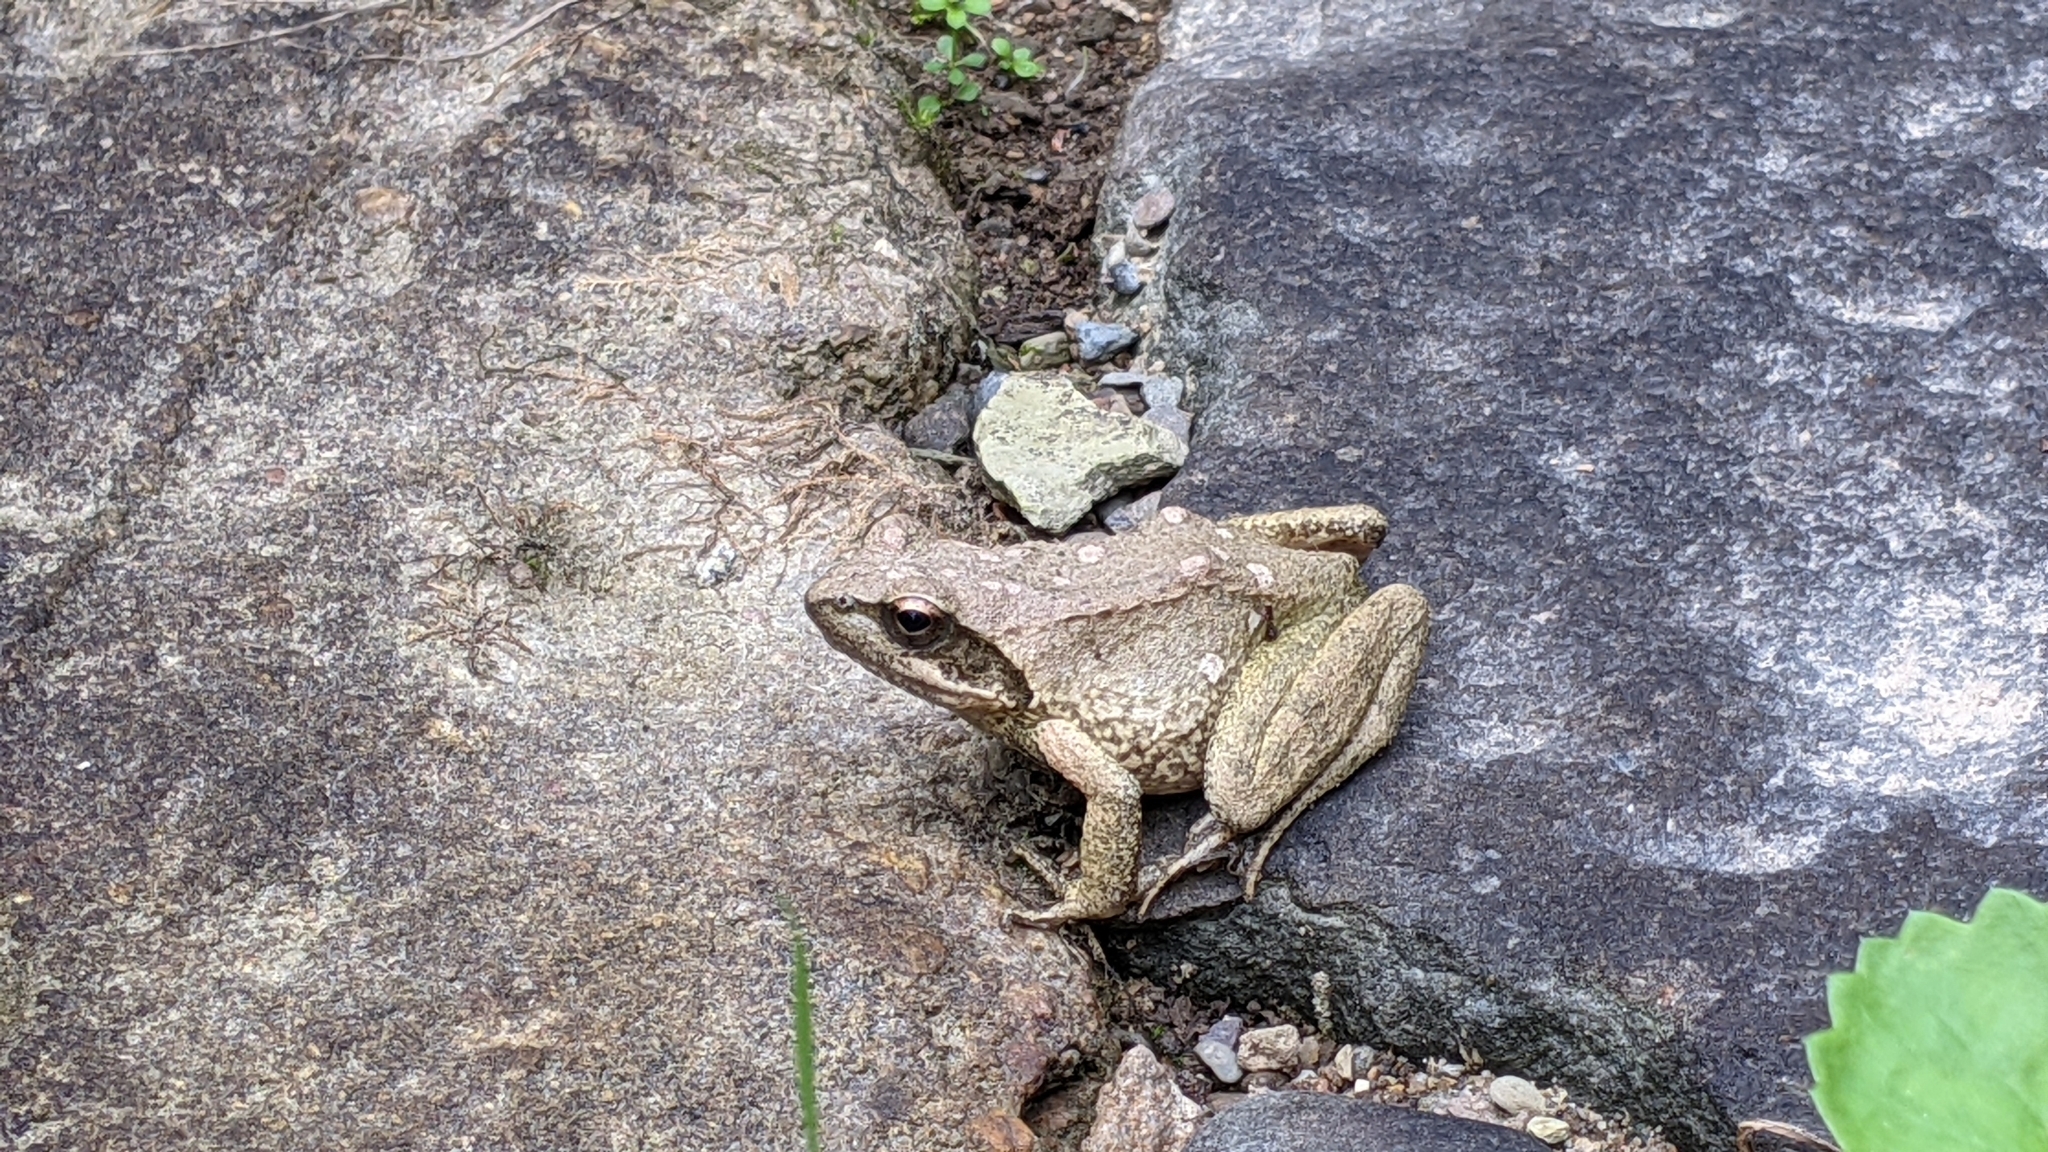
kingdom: Animalia
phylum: Chordata
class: Amphibia
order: Anura
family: Ranidae
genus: Rana
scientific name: Rana italica
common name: Italian stream frog
